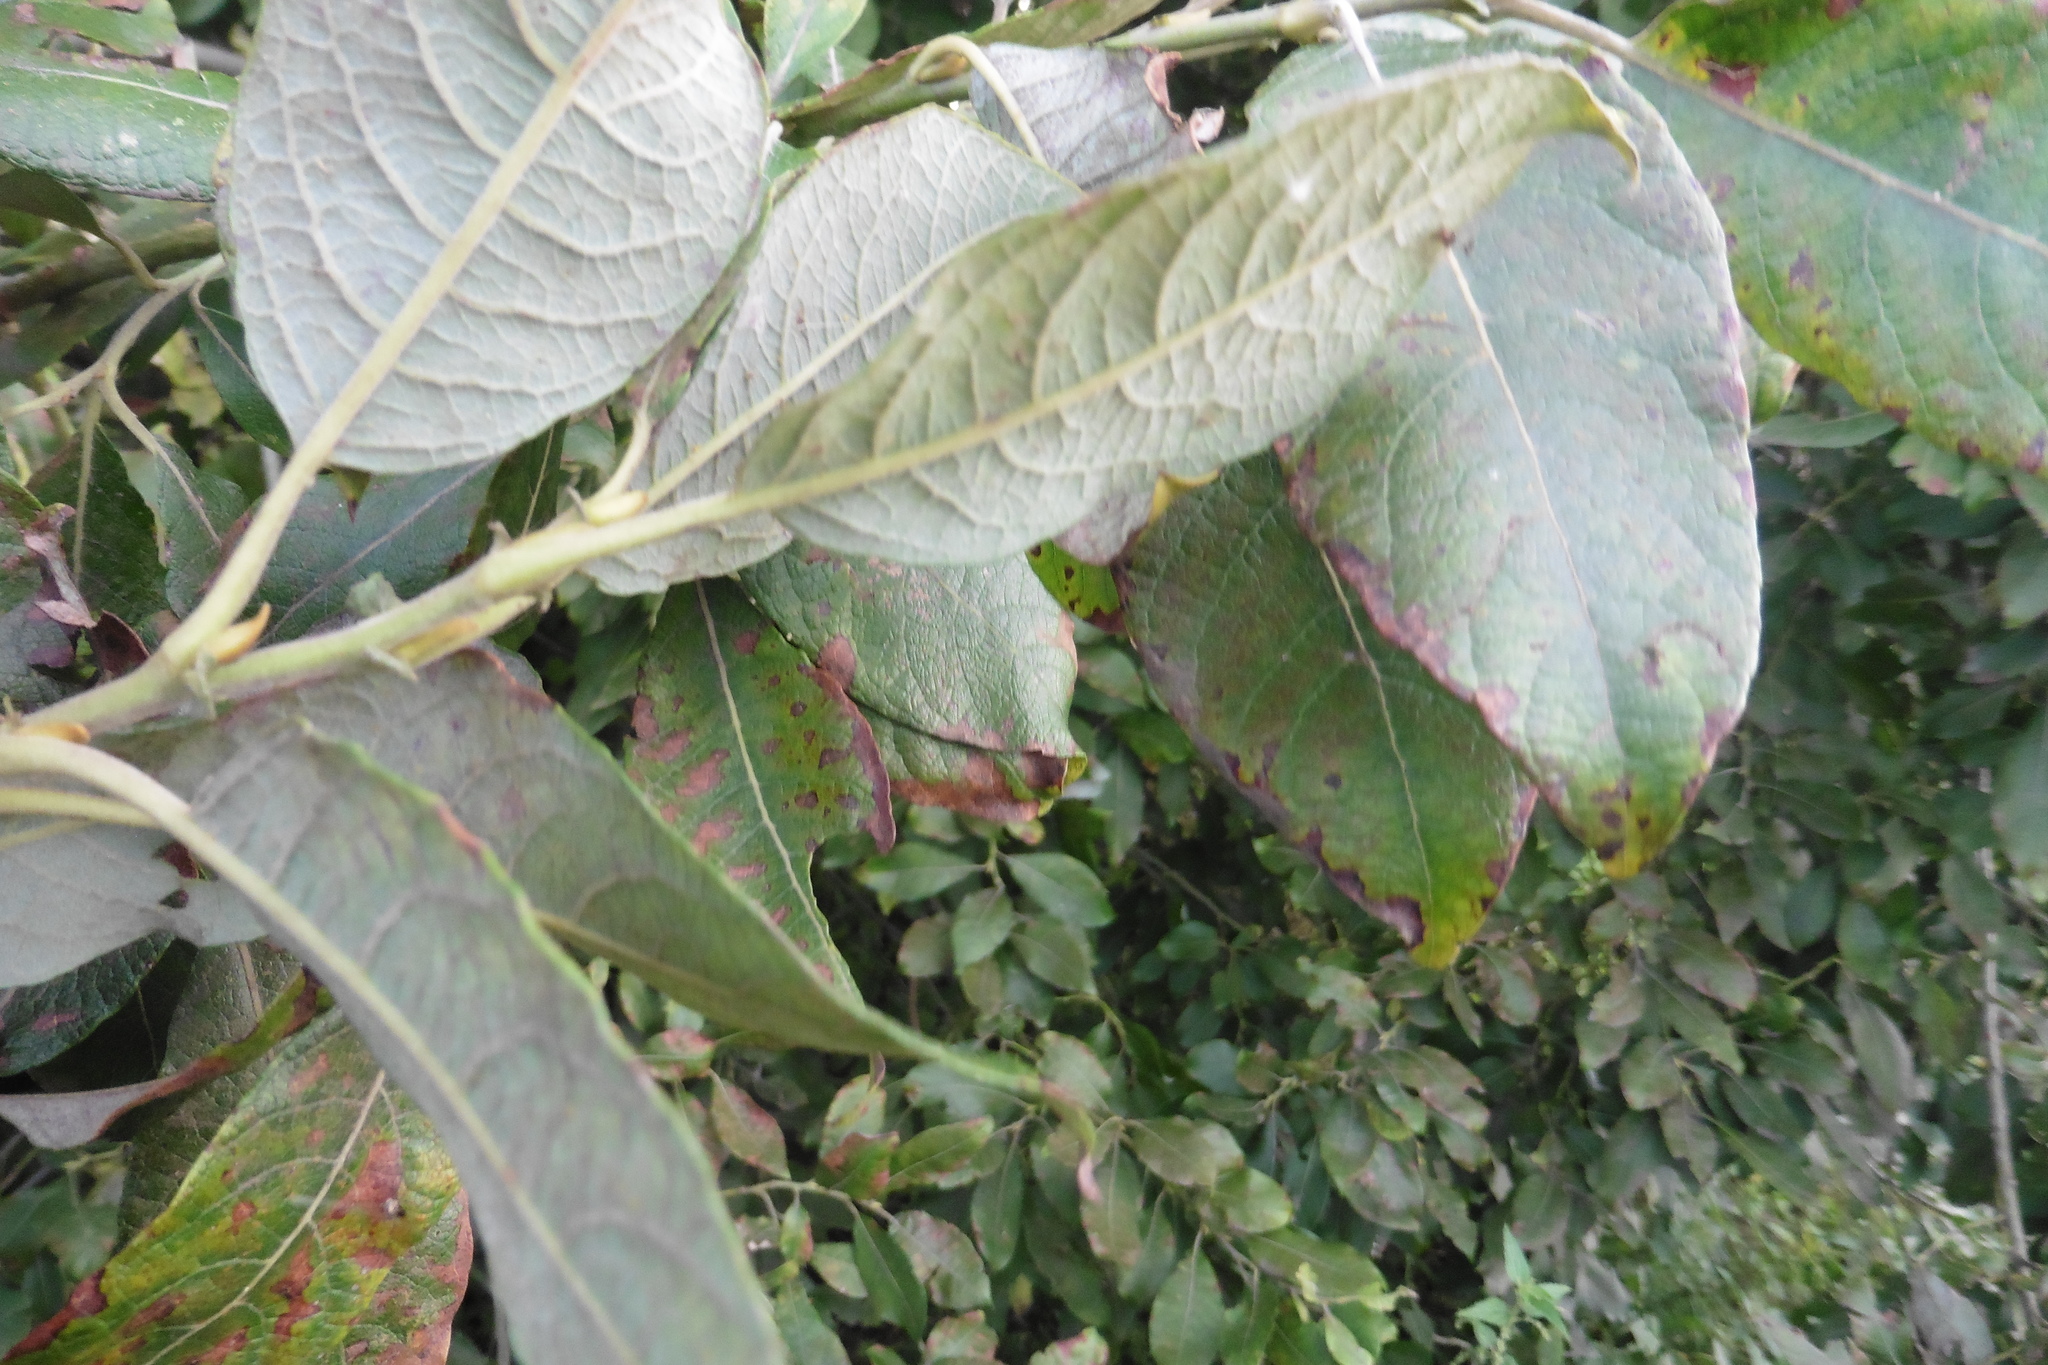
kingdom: Plantae
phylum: Tracheophyta
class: Magnoliopsida
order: Malpighiales
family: Salicaceae
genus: Salix
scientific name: Salix caprea
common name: Goat willow
